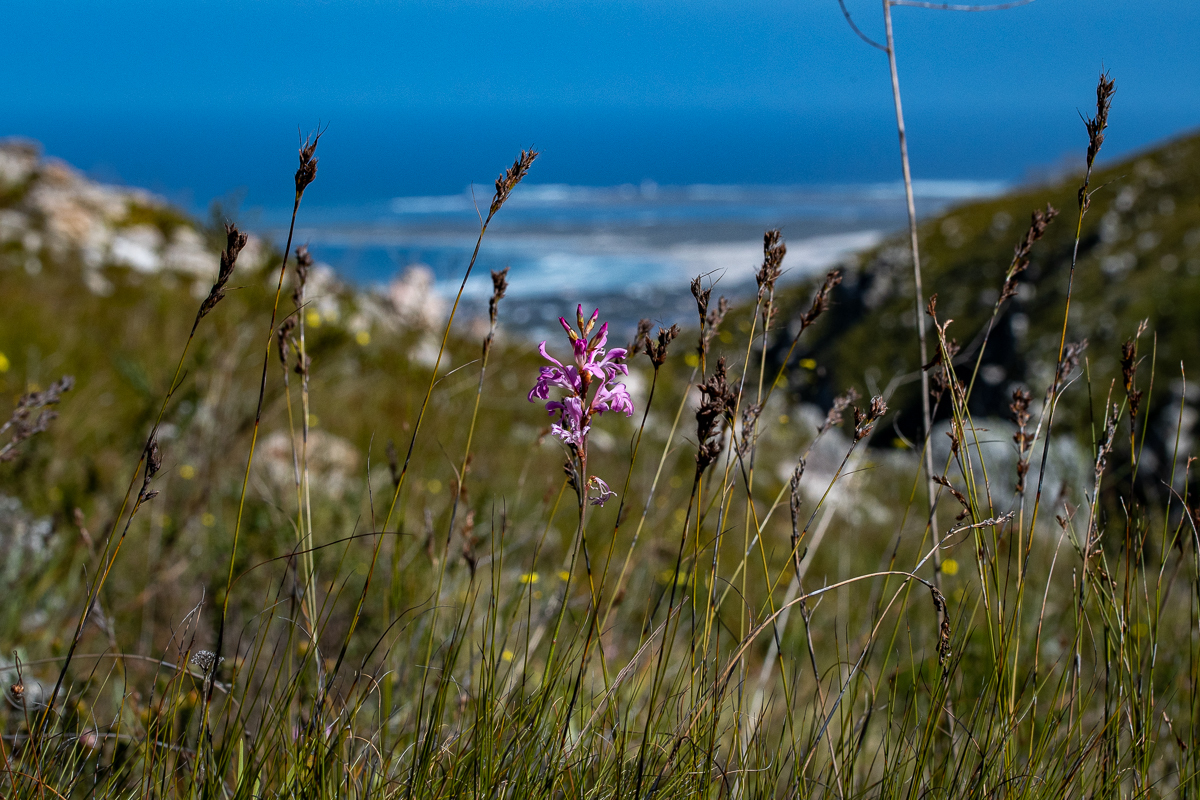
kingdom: Plantae
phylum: Tracheophyta
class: Liliopsida
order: Asparagales
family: Iridaceae
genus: Tritoniopsis
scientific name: Tritoniopsis lata
